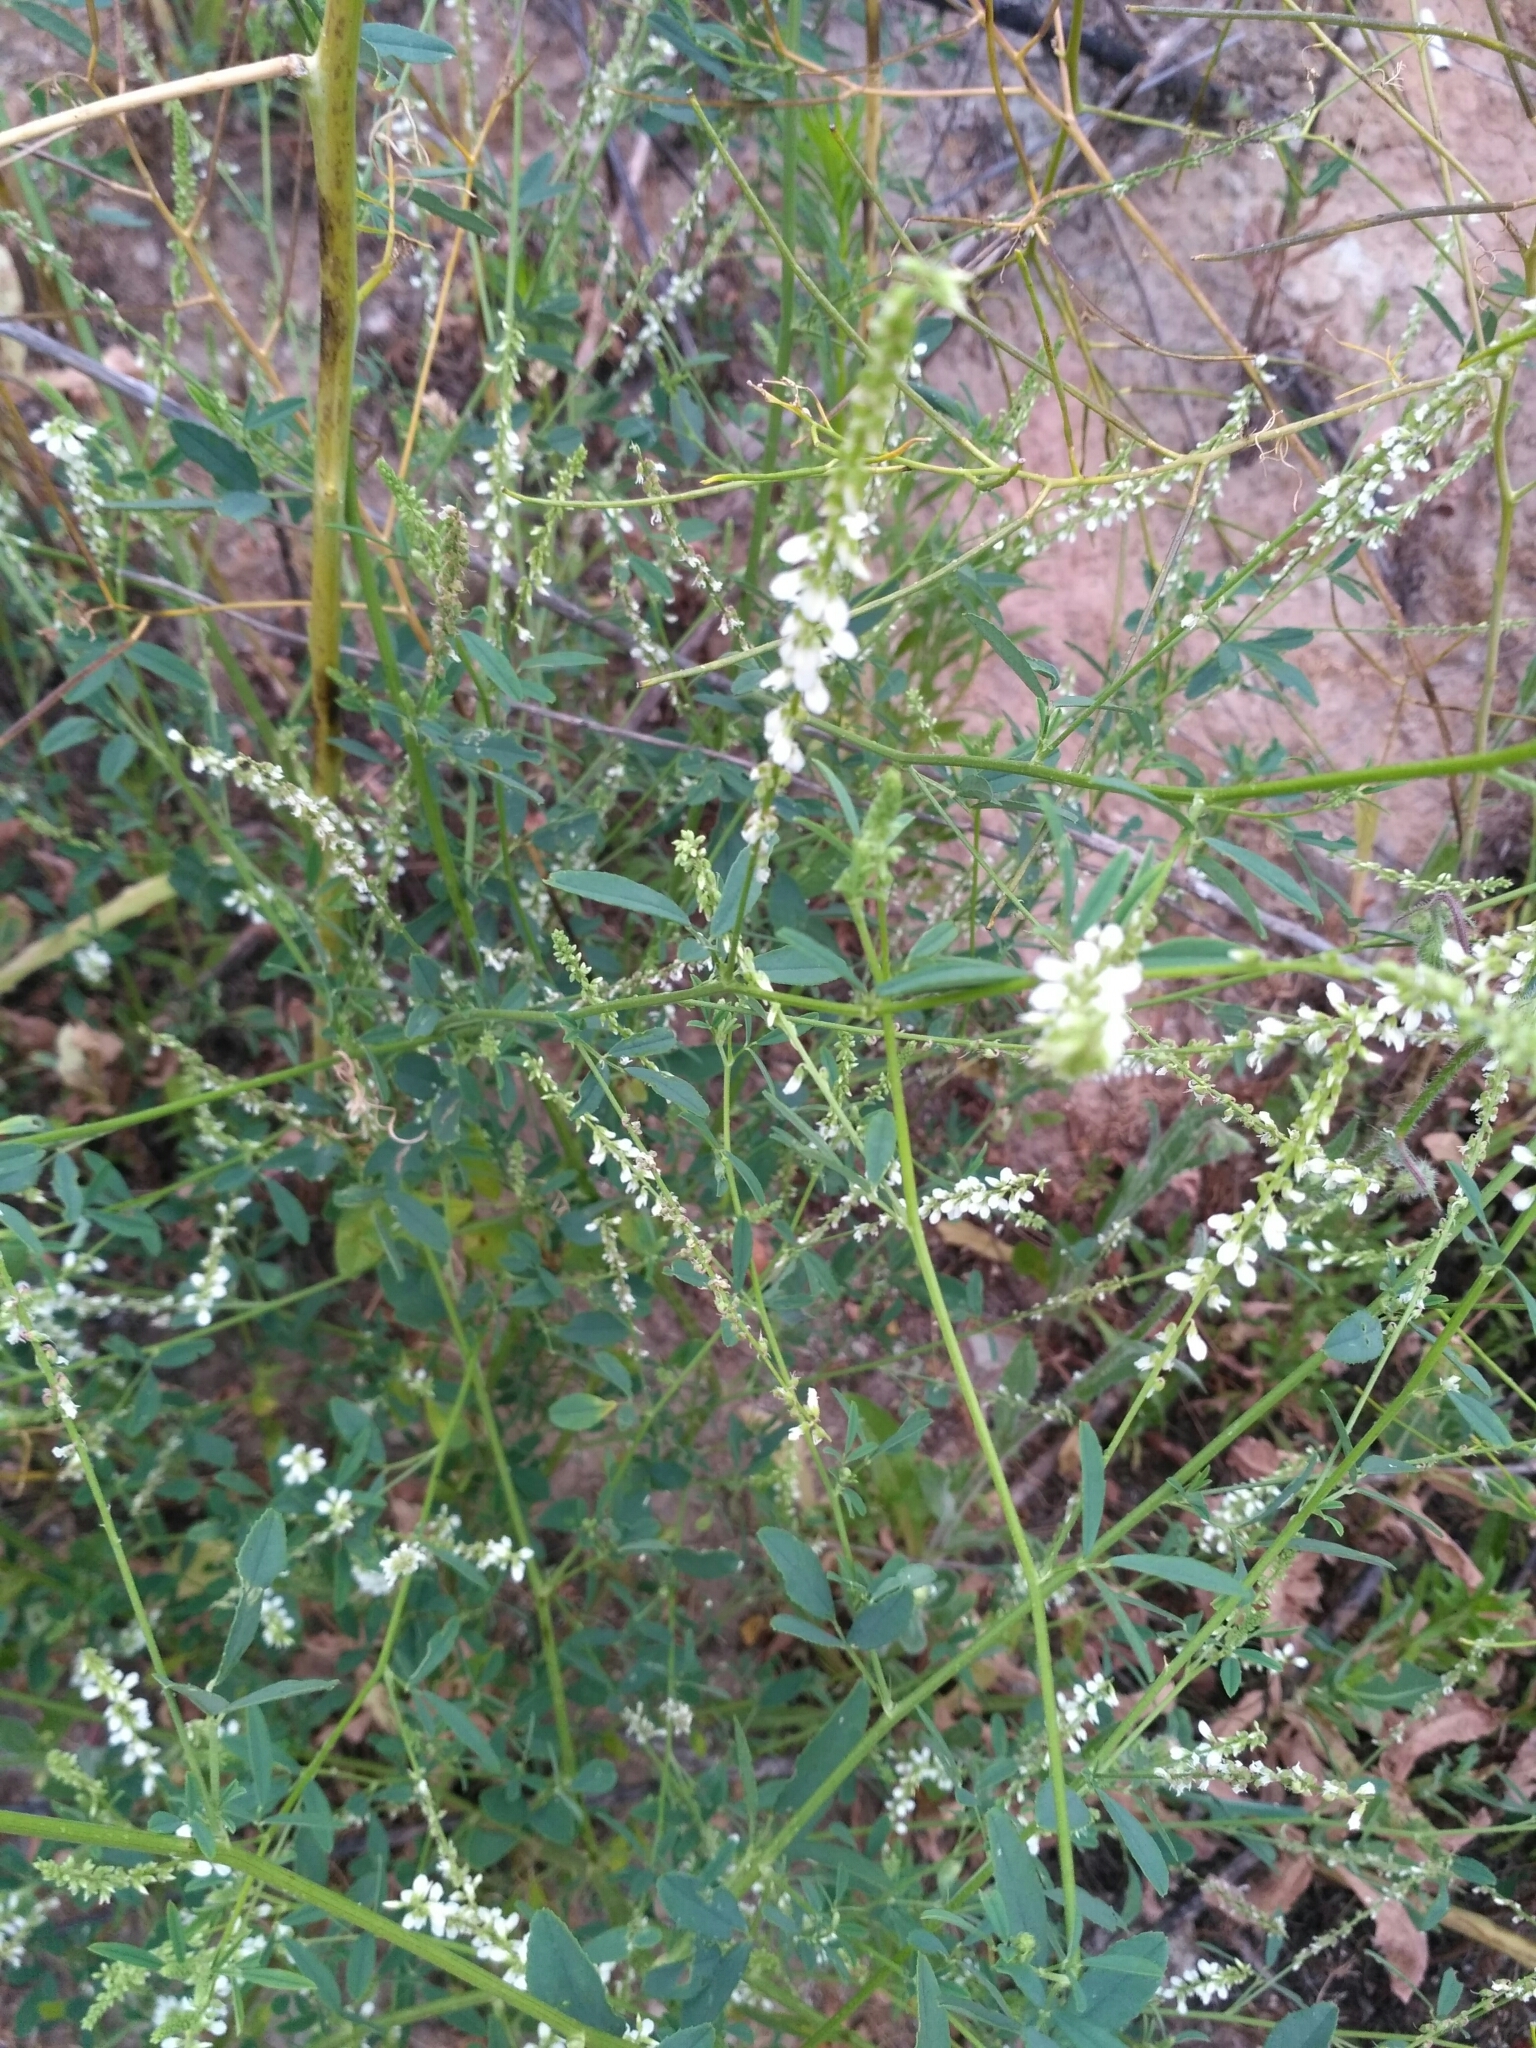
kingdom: Plantae
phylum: Tracheophyta
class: Magnoliopsida
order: Fabales
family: Fabaceae
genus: Melilotus
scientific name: Melilotus albus
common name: White melilot
